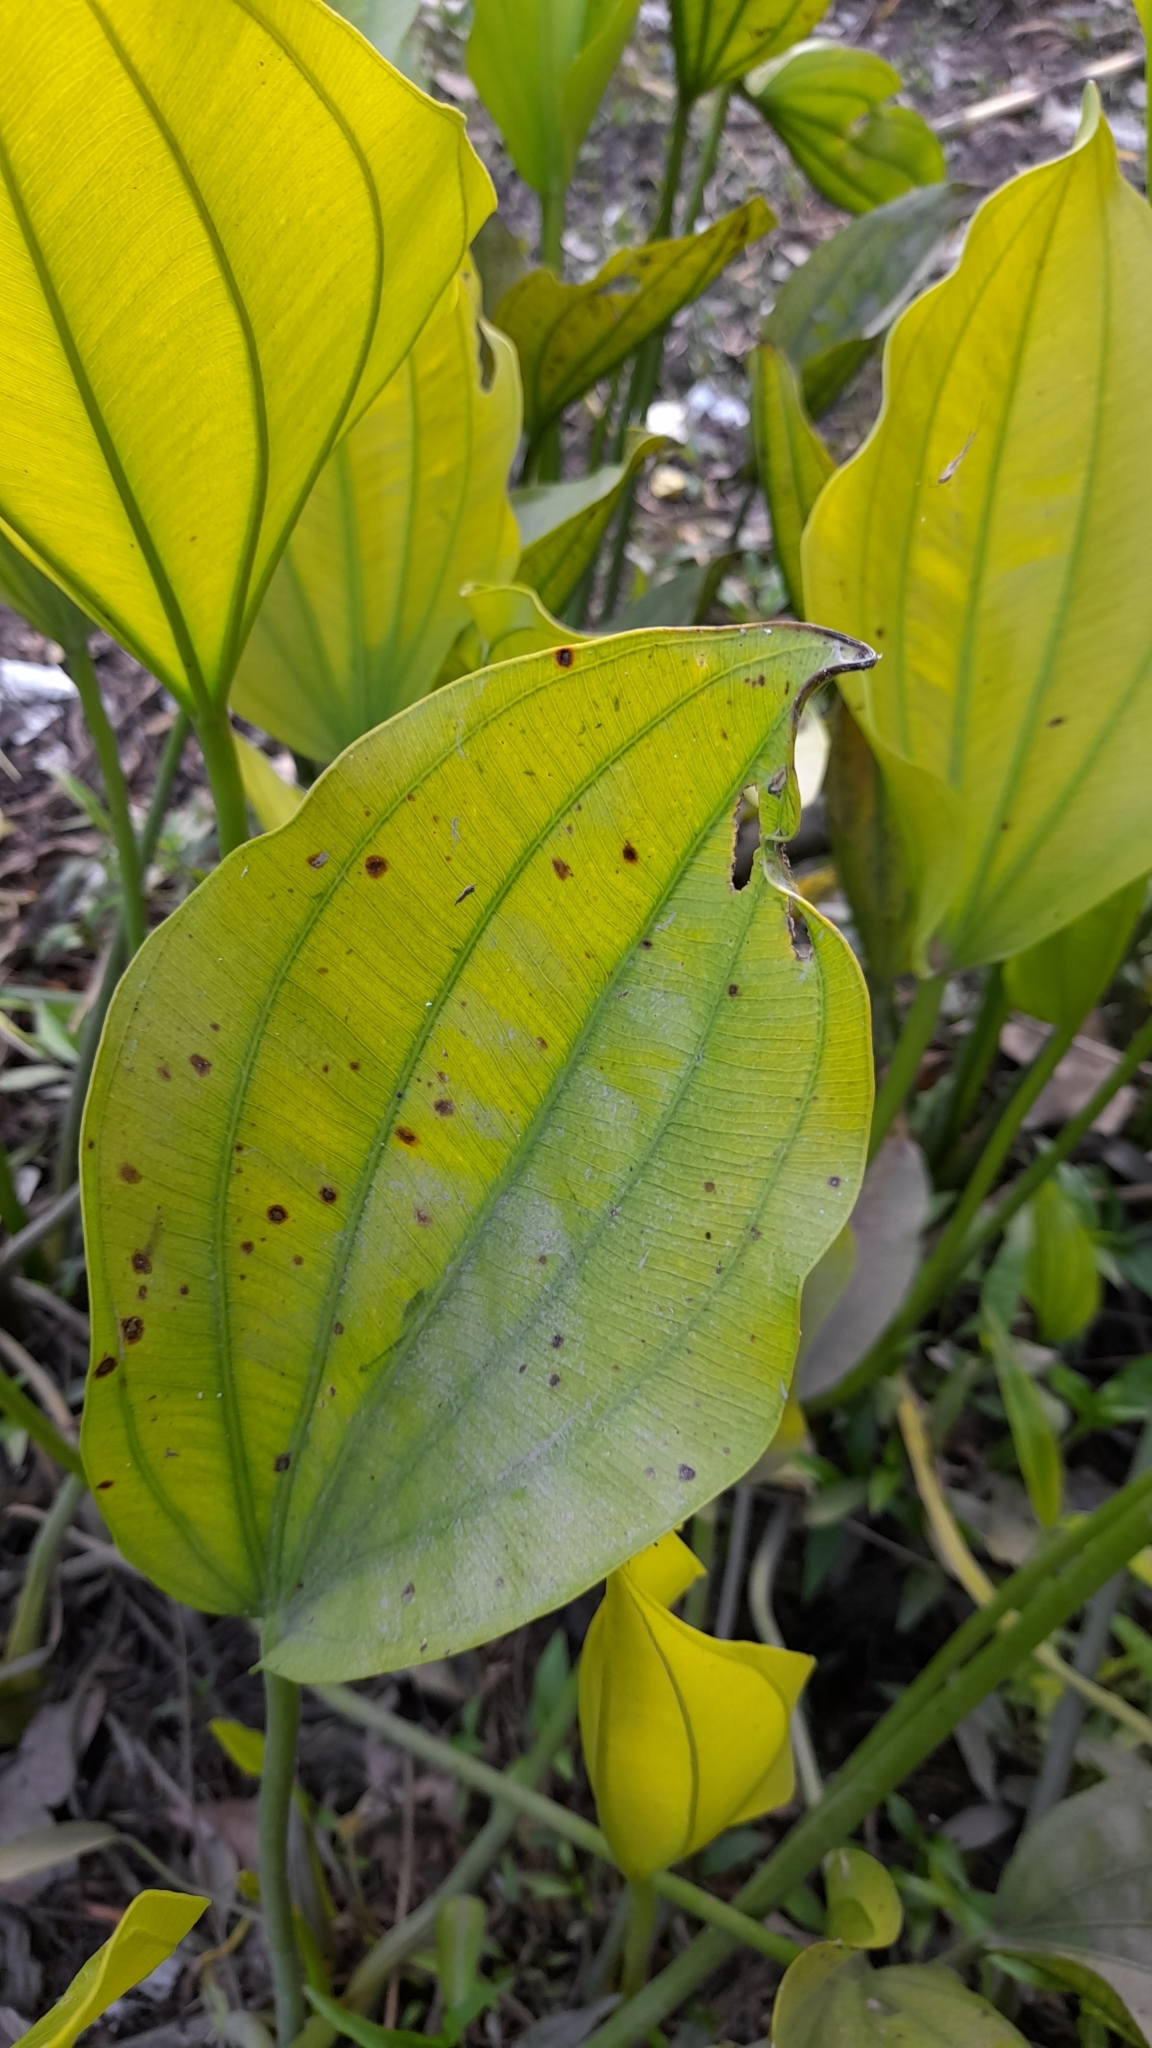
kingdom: Plantae
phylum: Tracheophyta
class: Liliopsida
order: Alismatales
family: Alismataceae
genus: Aquarius
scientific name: Aquarius grandiflorus
